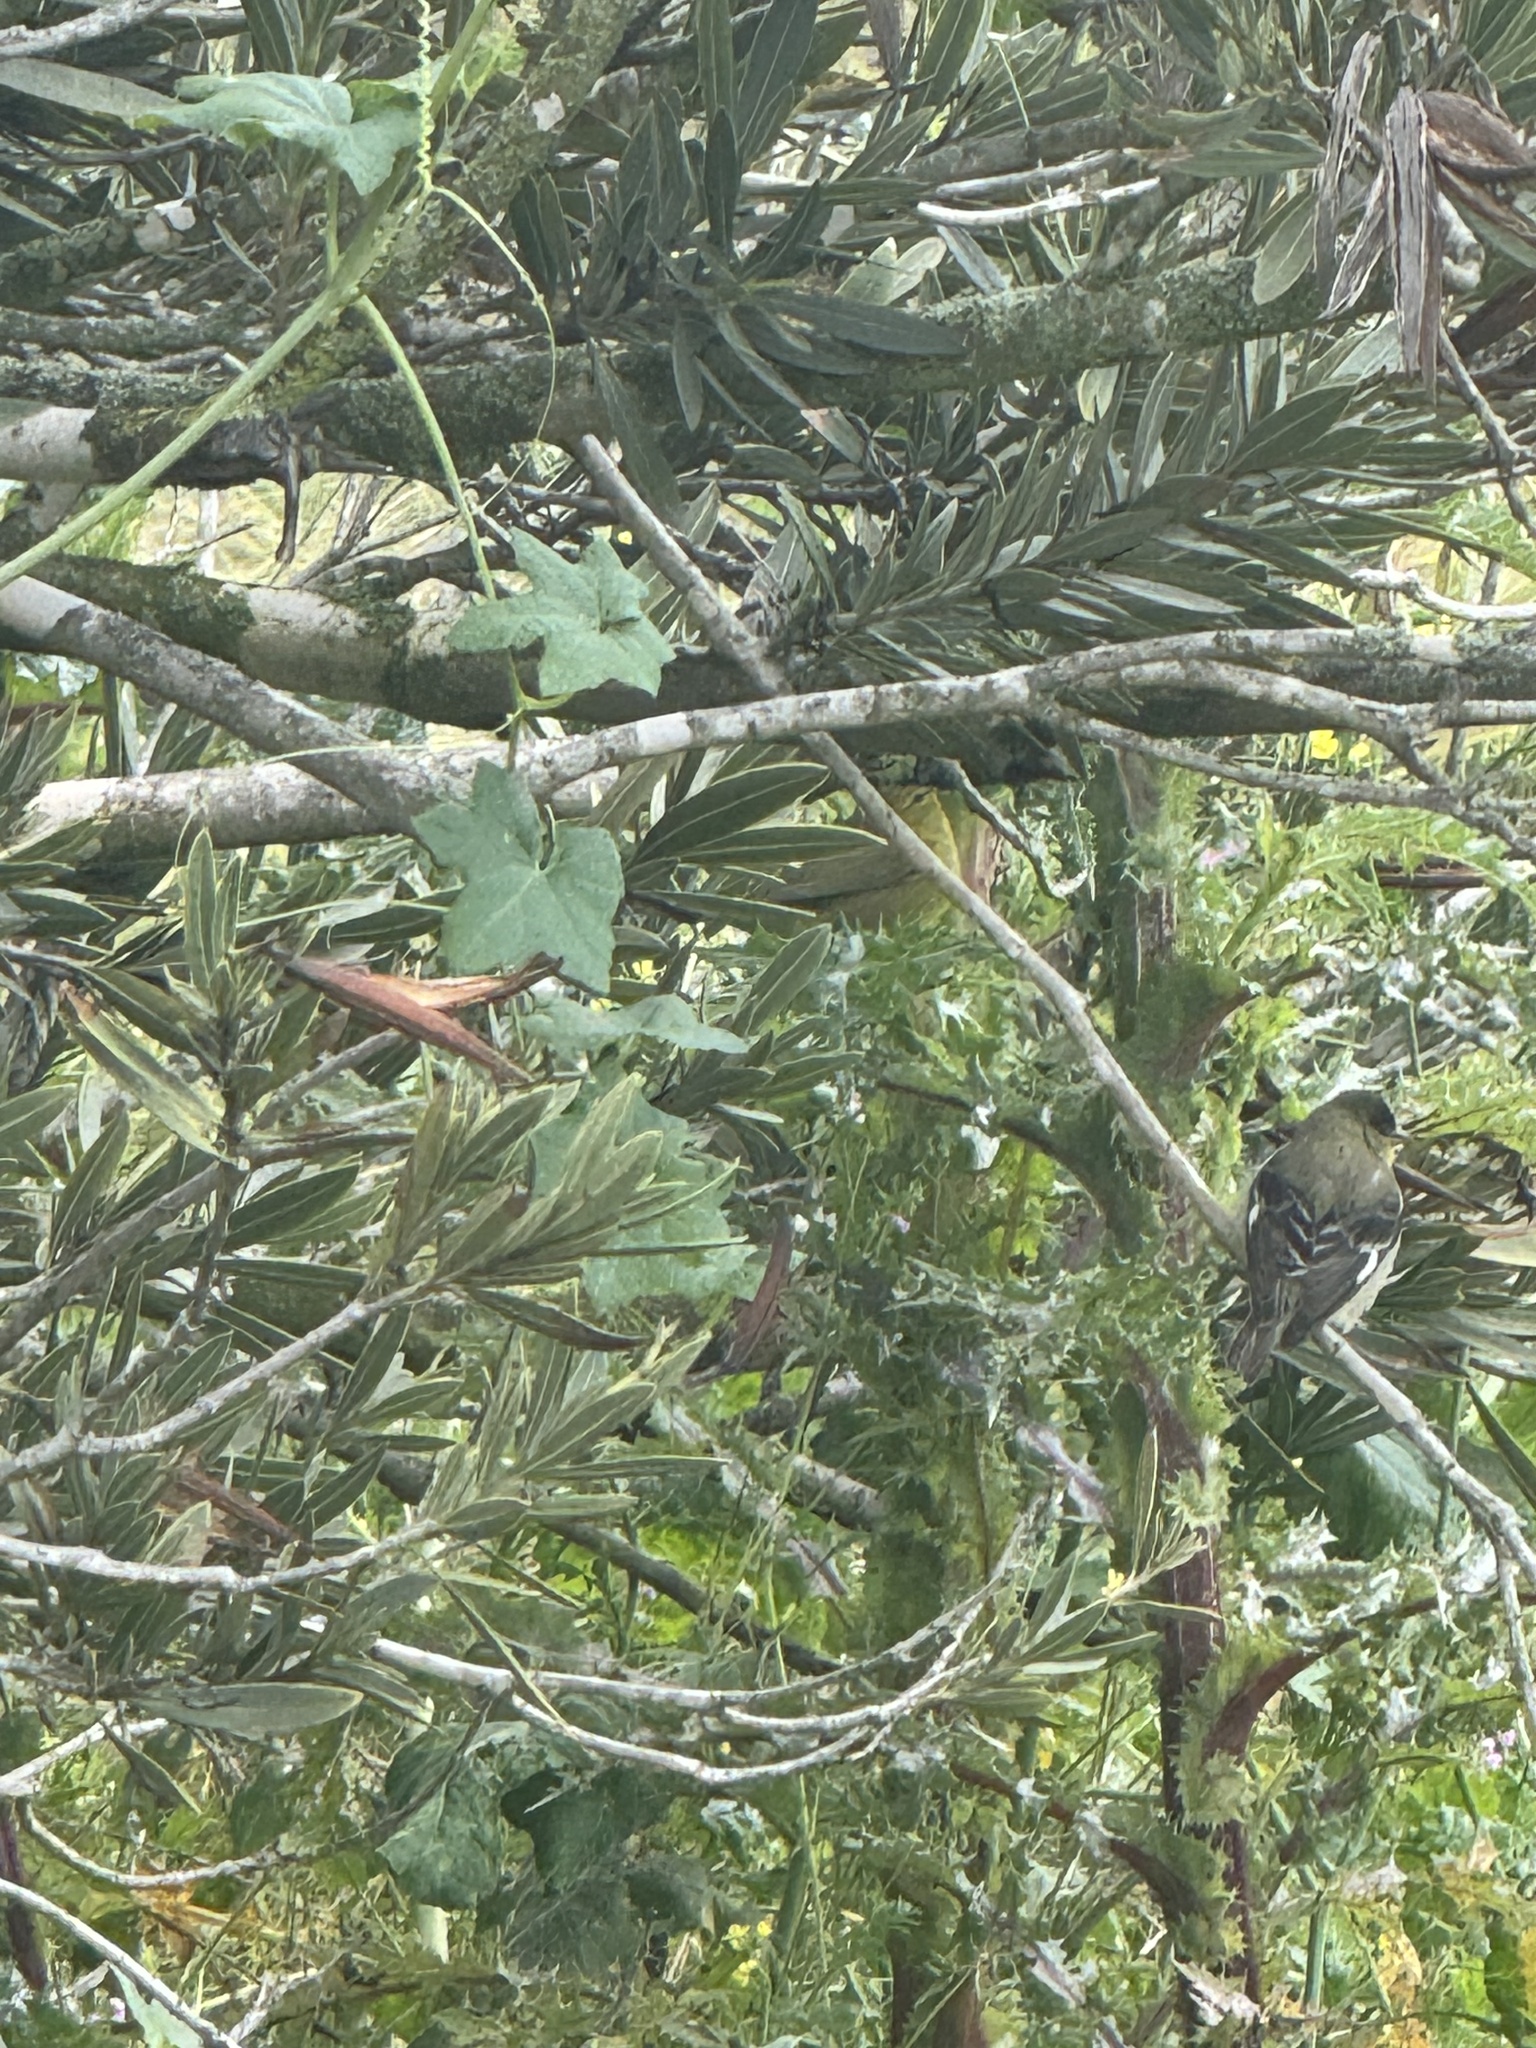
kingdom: Animalia
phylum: Chordata
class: Aves
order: Passeriformes
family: Fringillidae
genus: Spinus
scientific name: Spinus psaltria
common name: Lesser goldfinch
